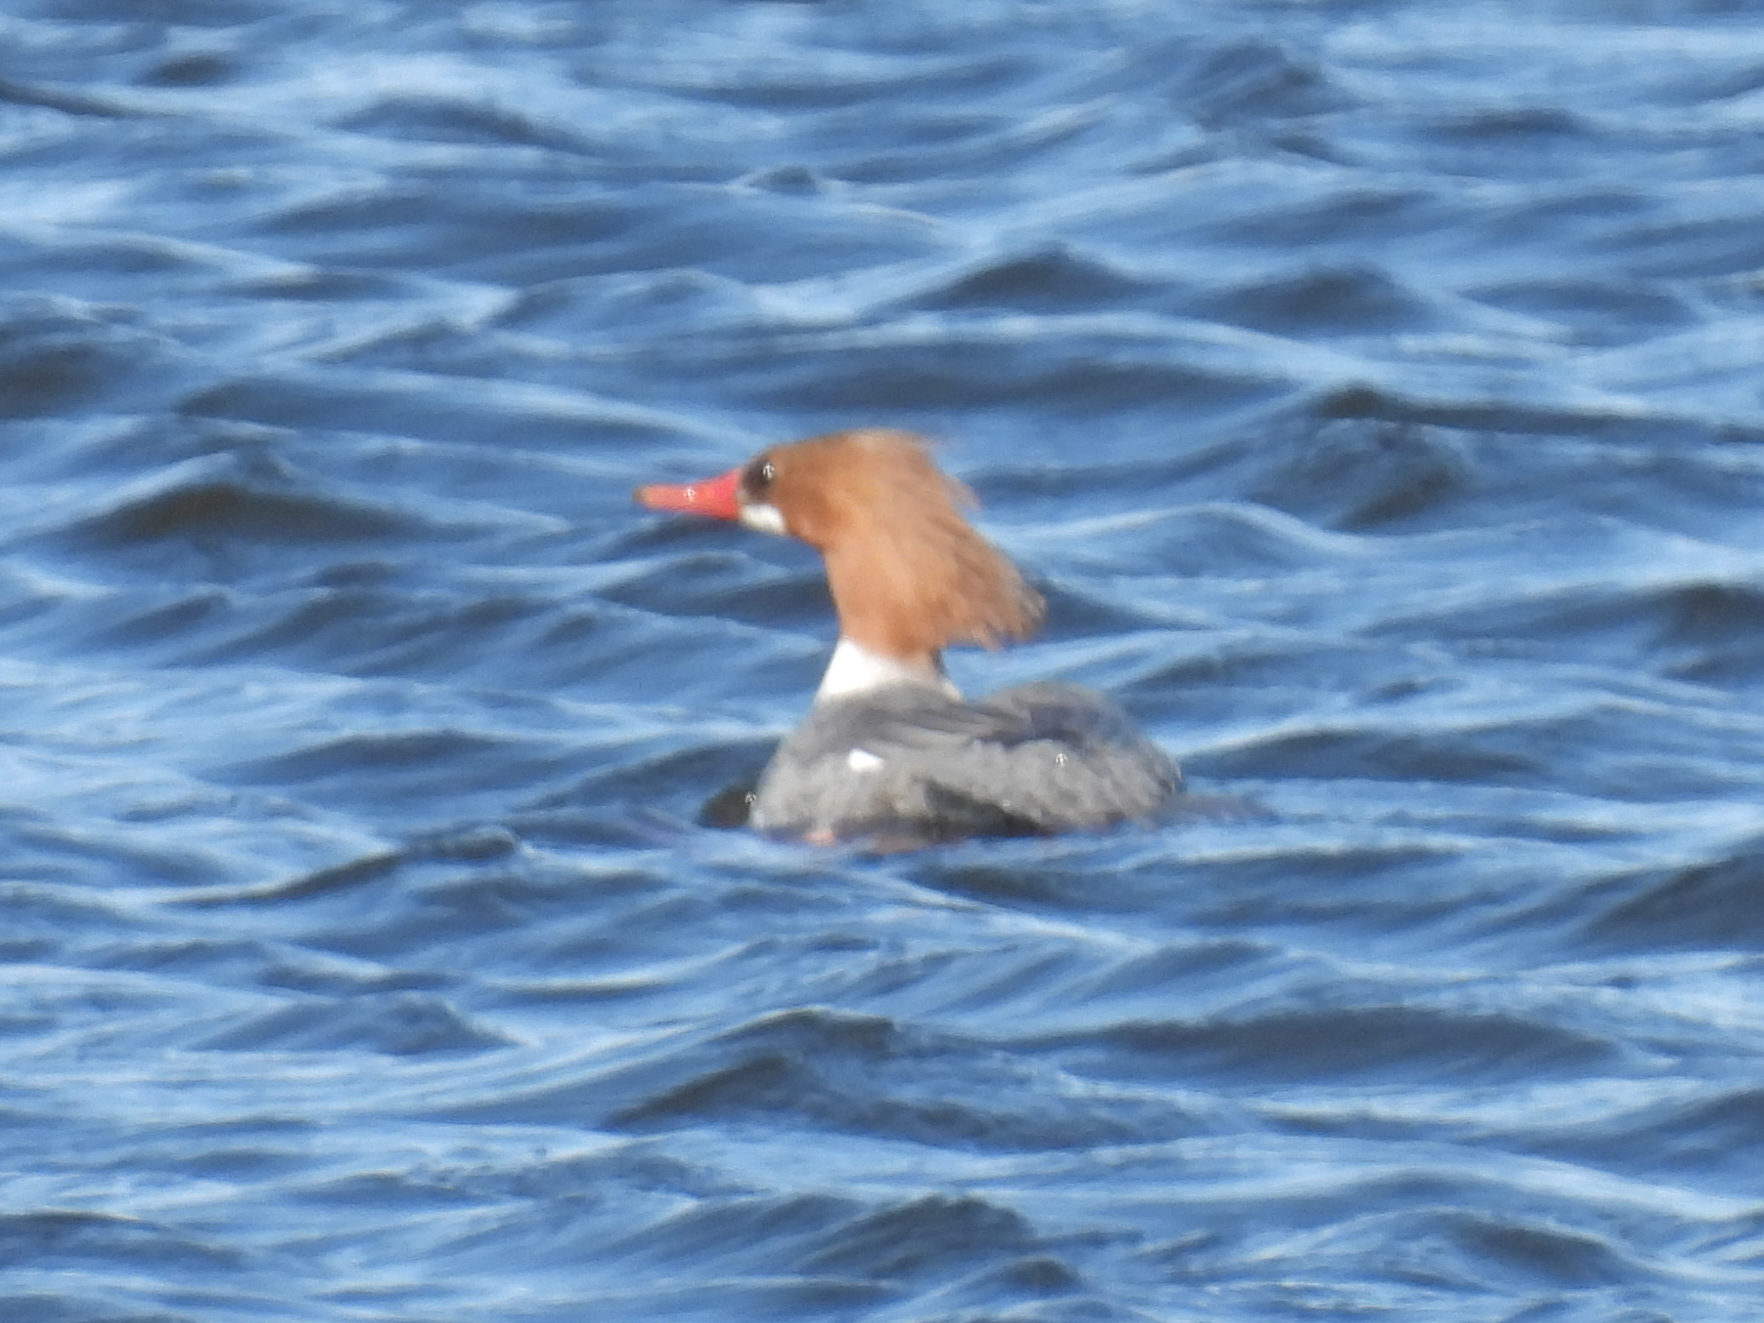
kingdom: Animalia
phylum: Chordata
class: Aves
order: Anseriformes
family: Anatidae
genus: Mergus
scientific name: Mergus merganser
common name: Common merganser
